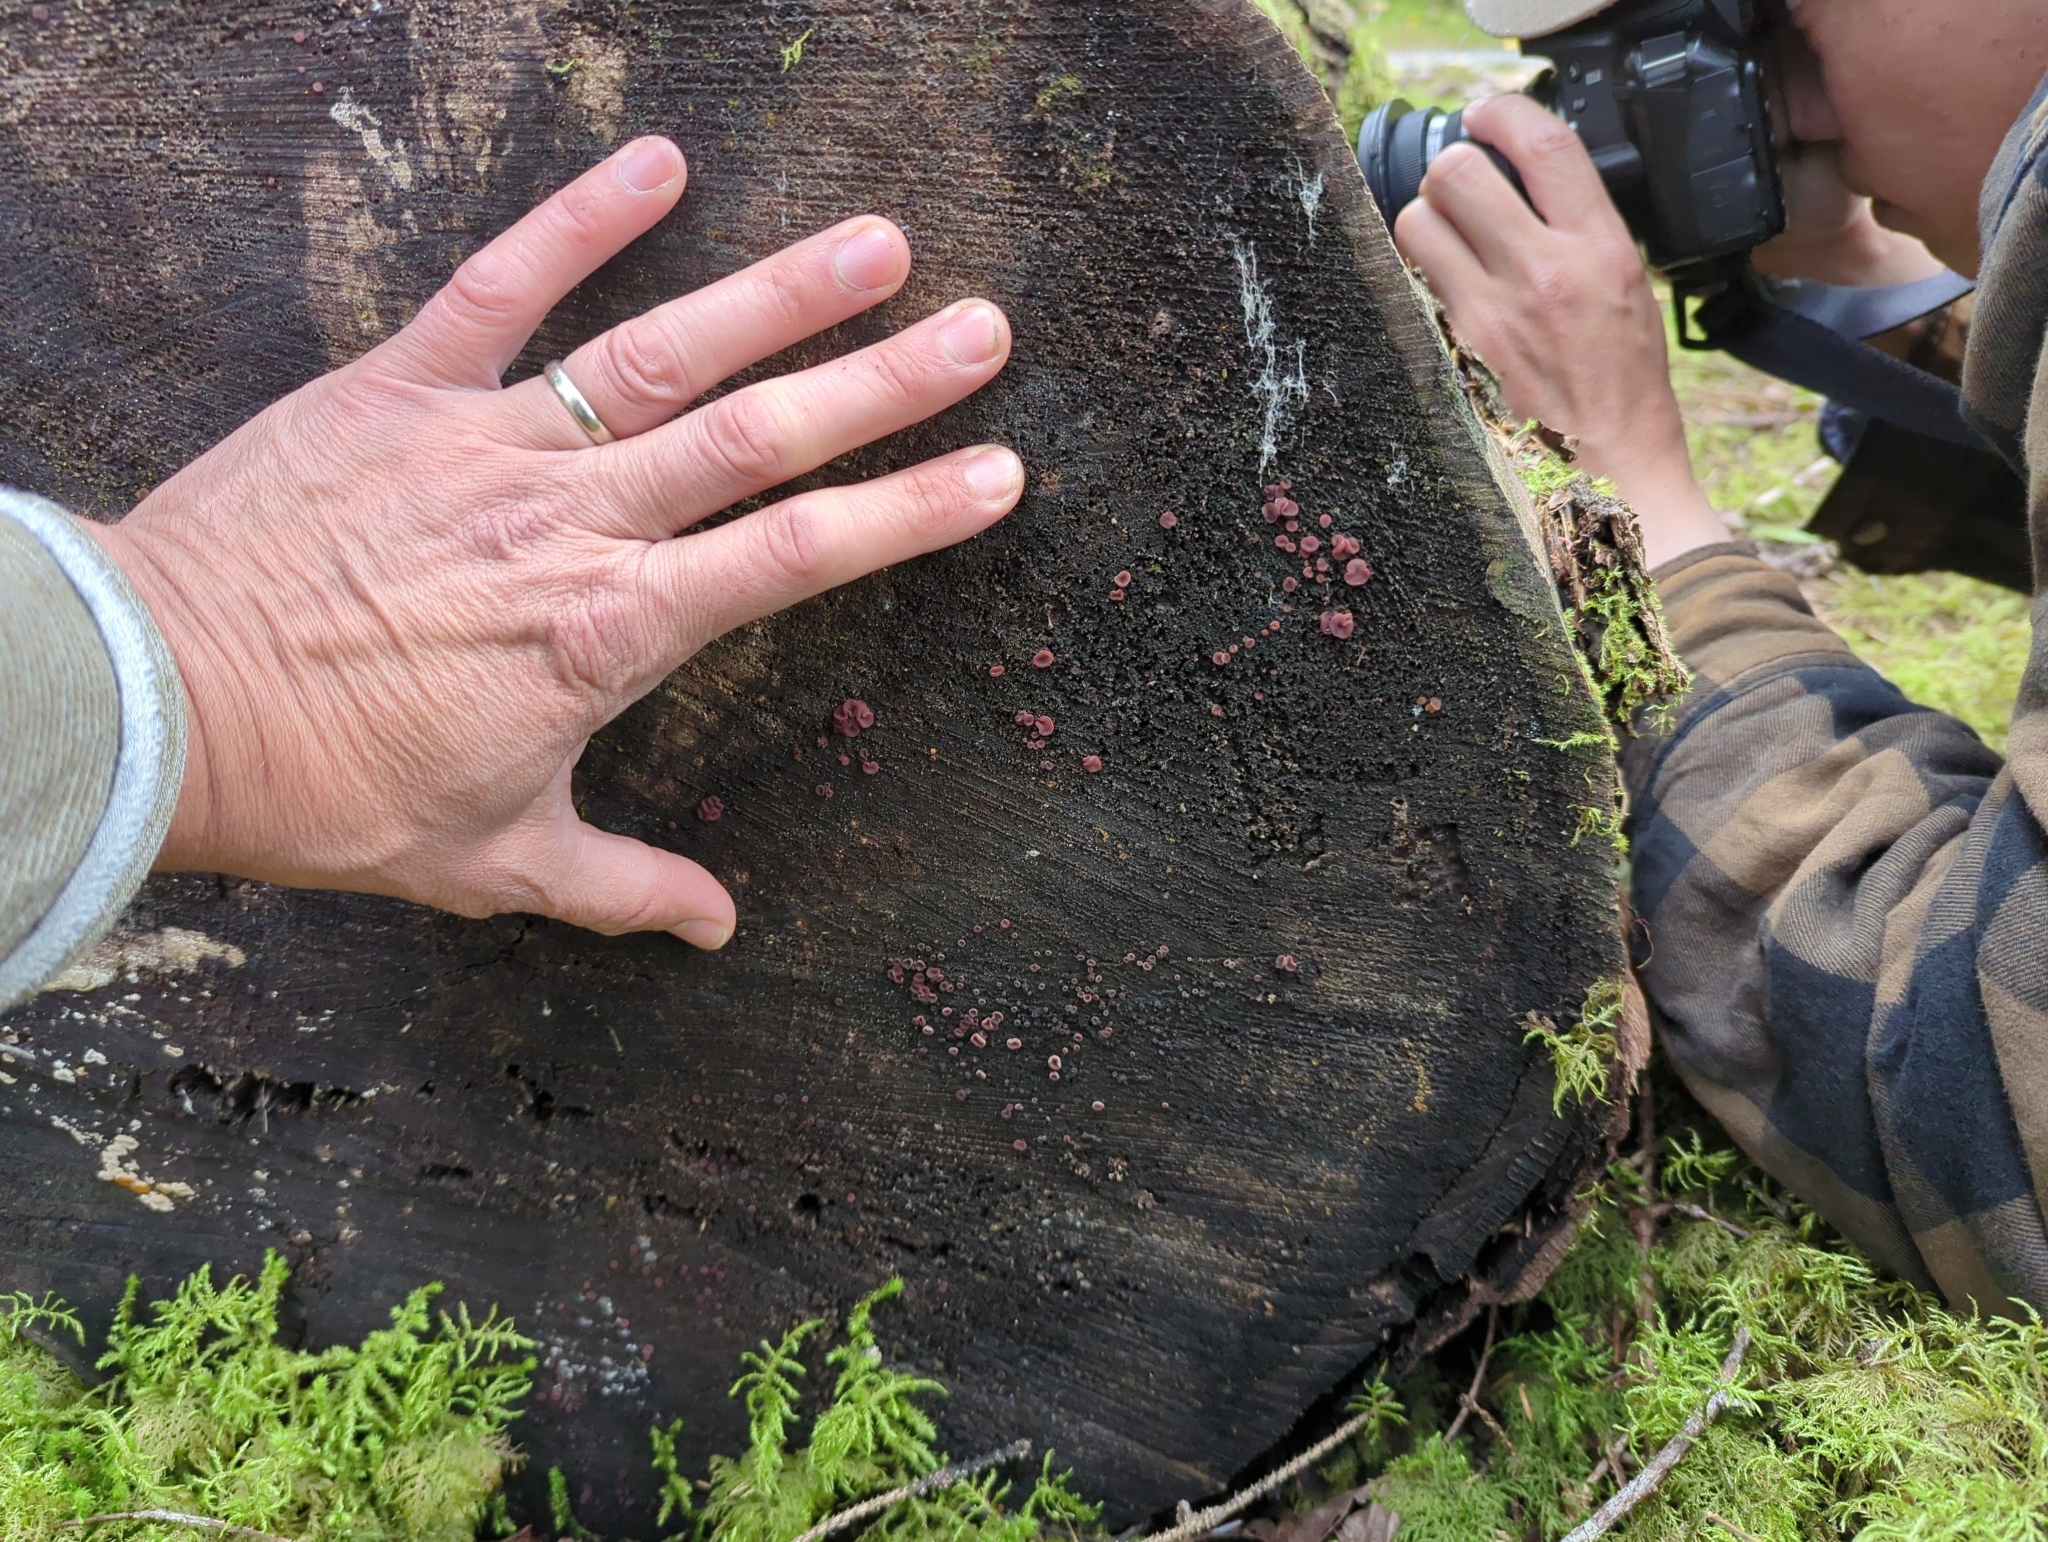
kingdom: Fungi
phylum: Ascomycota
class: Leotiomycetes
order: Helotiales
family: Gelatinodiscaceae
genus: Ascocoryne
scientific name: Ascocoryne sarcoides
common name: Purple jellydisc
